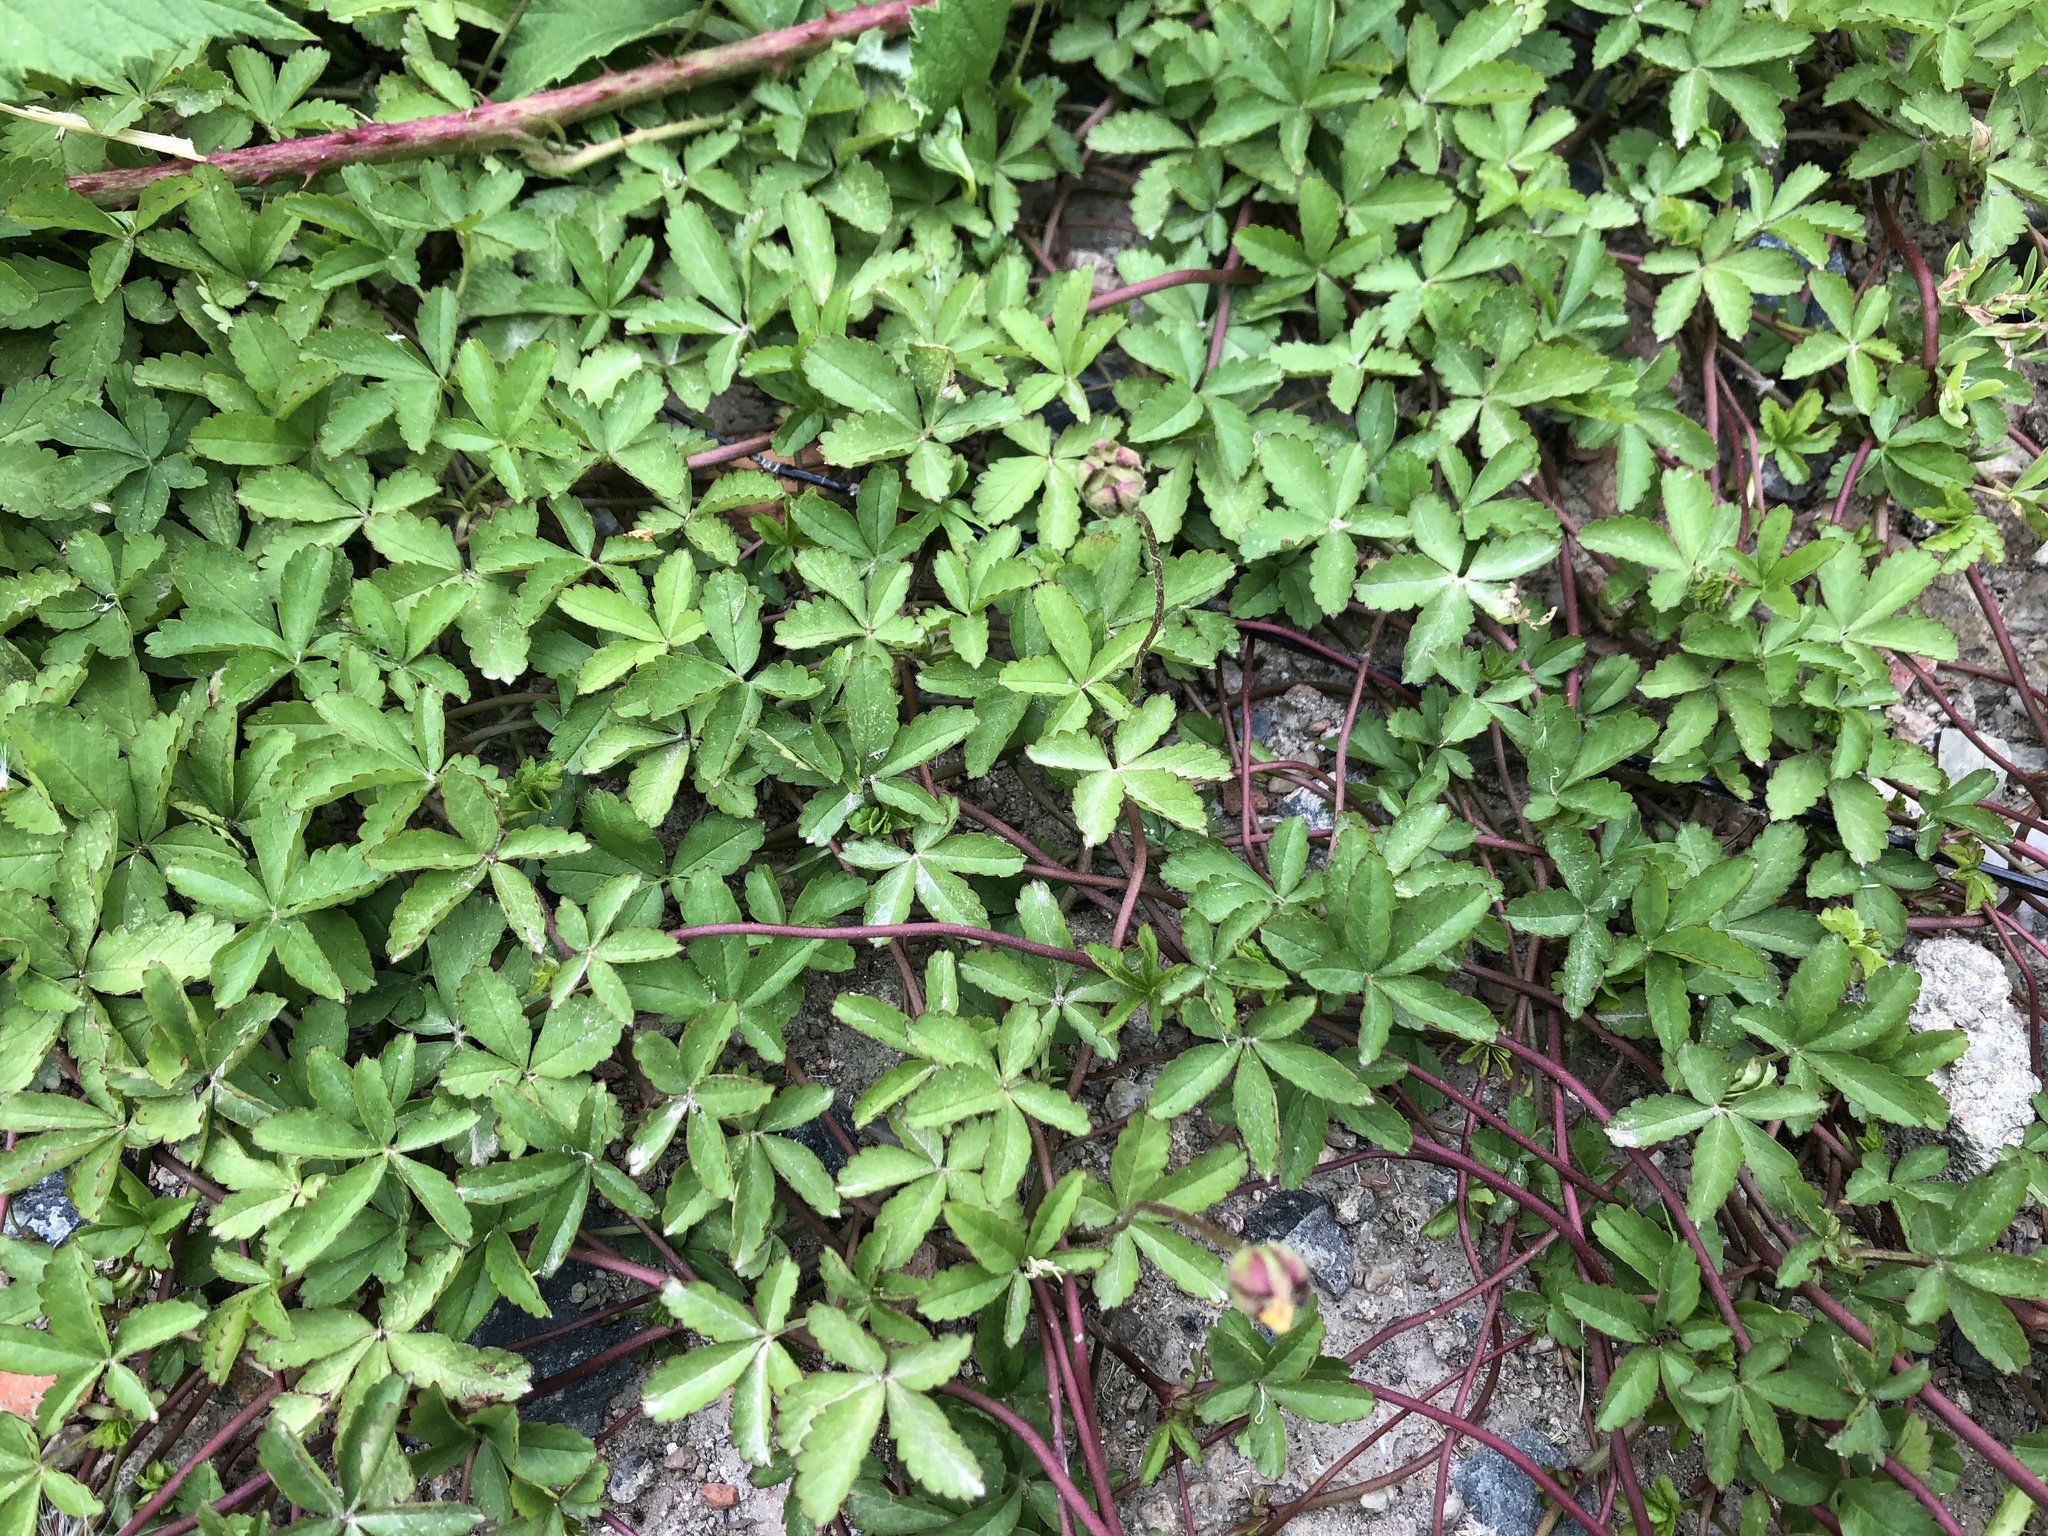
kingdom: Plantae
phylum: Tracheophyta
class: Magnoliopsida
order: Rosales
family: Rosaceae
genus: Potentilla
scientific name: Potentilla reptans
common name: Creeping cinquefoil
